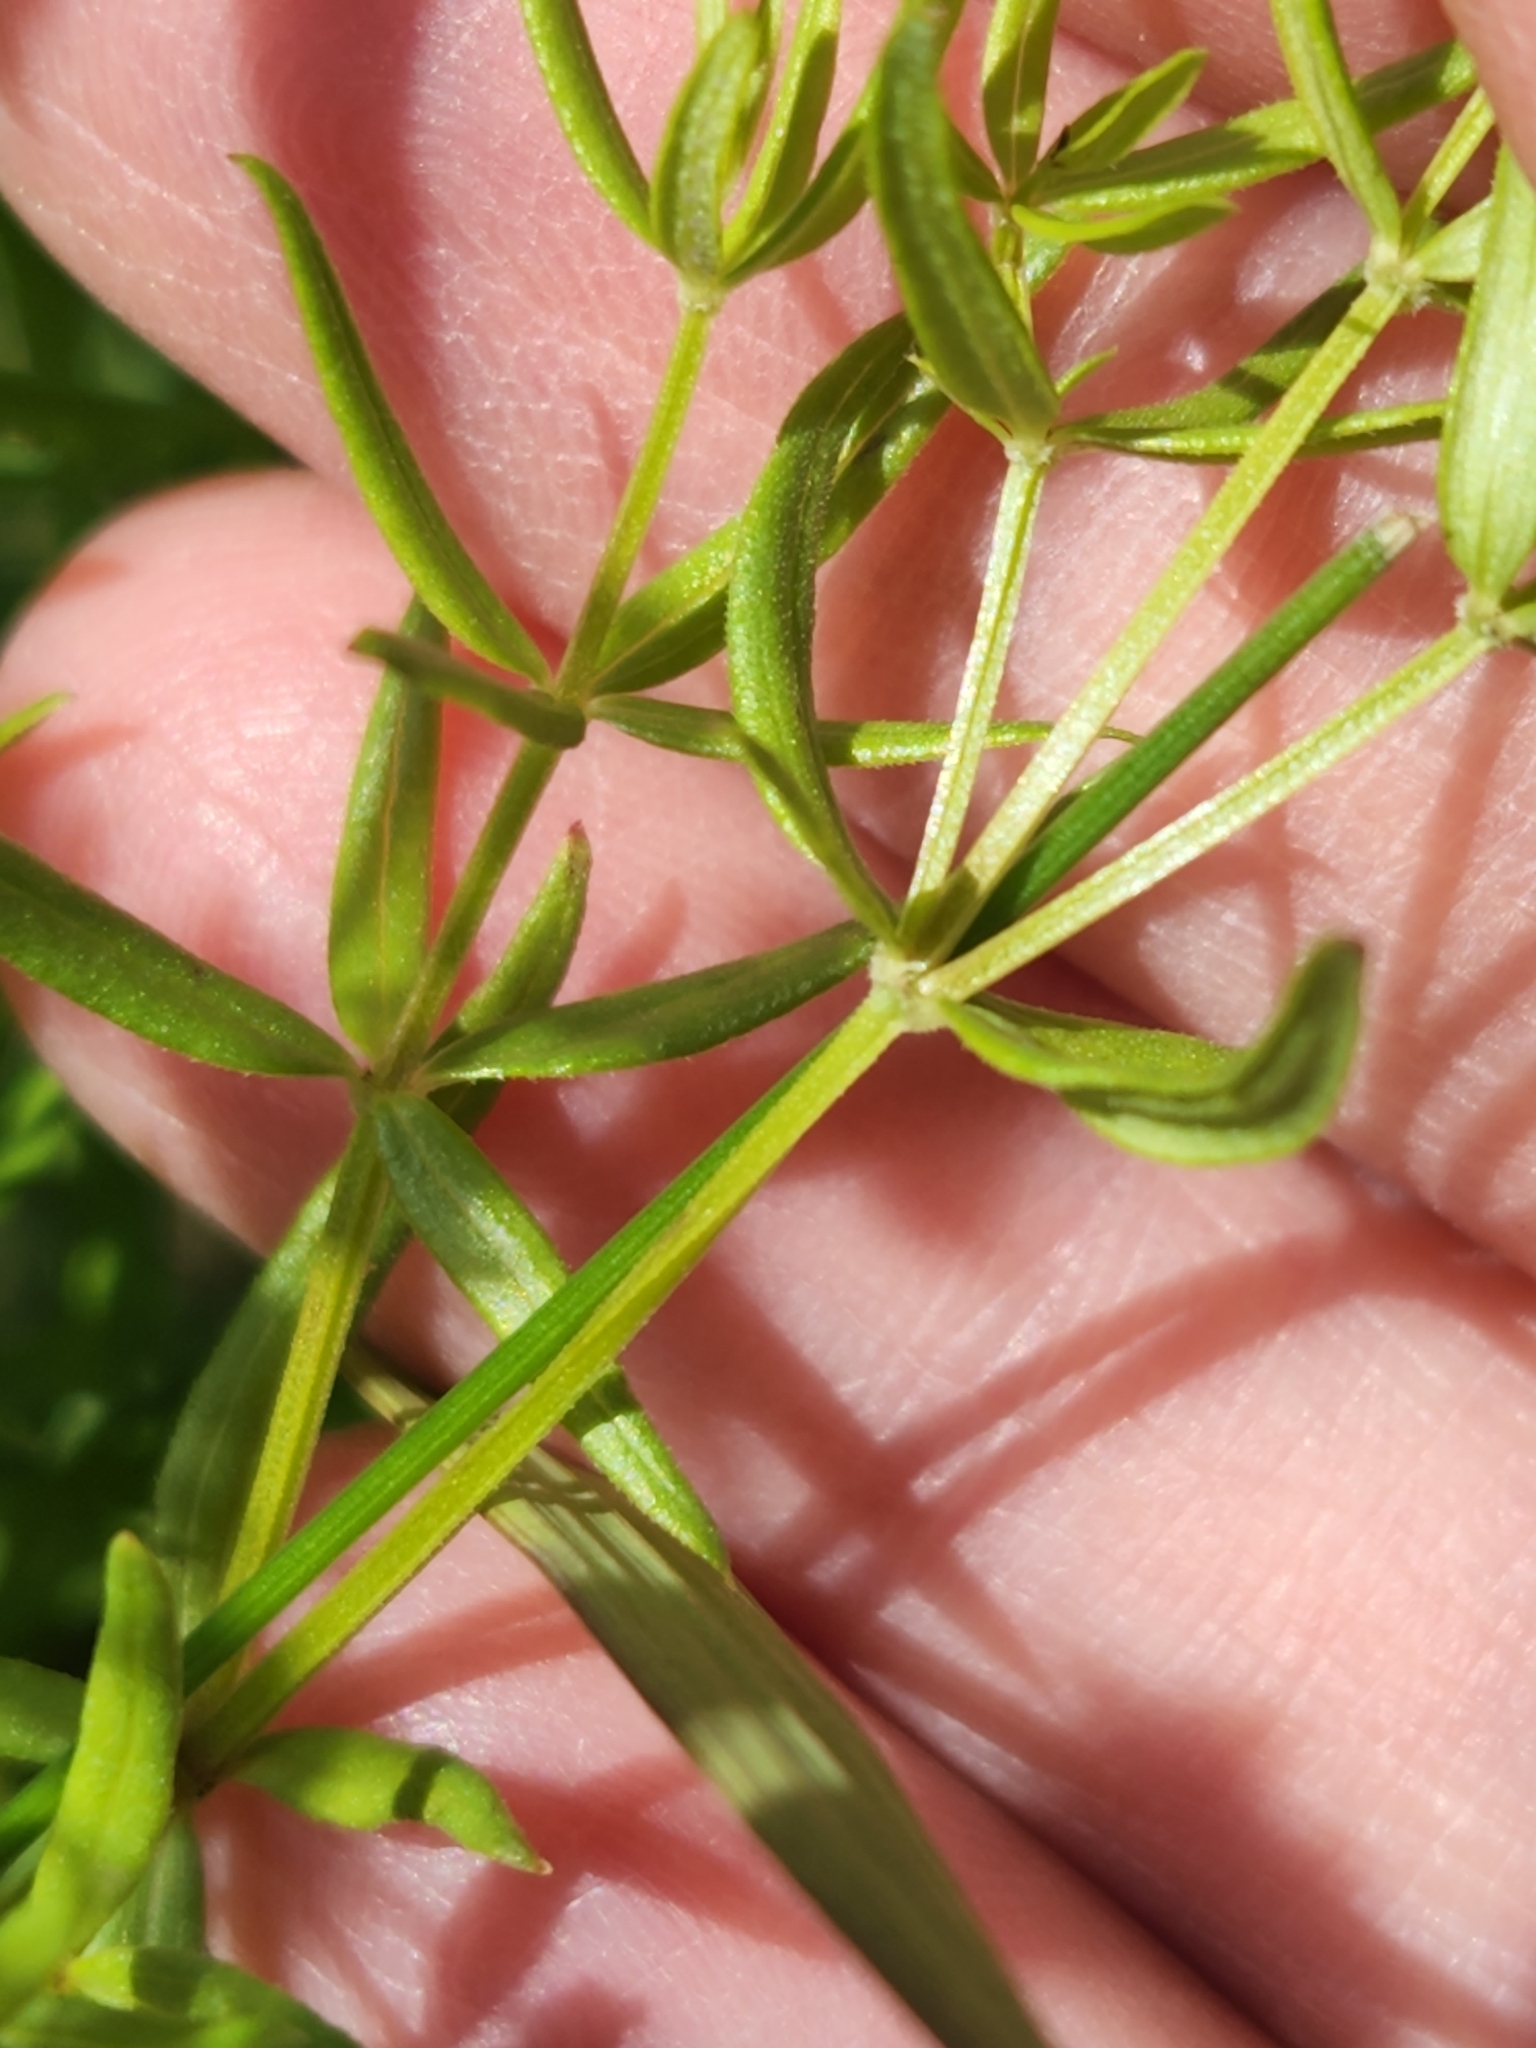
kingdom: Plantae
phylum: Tracheophyta
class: Magnoliopsida
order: Gentianales
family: Rubiaceae
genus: Galium
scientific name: Galium boreale
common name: Northern bedstraw
